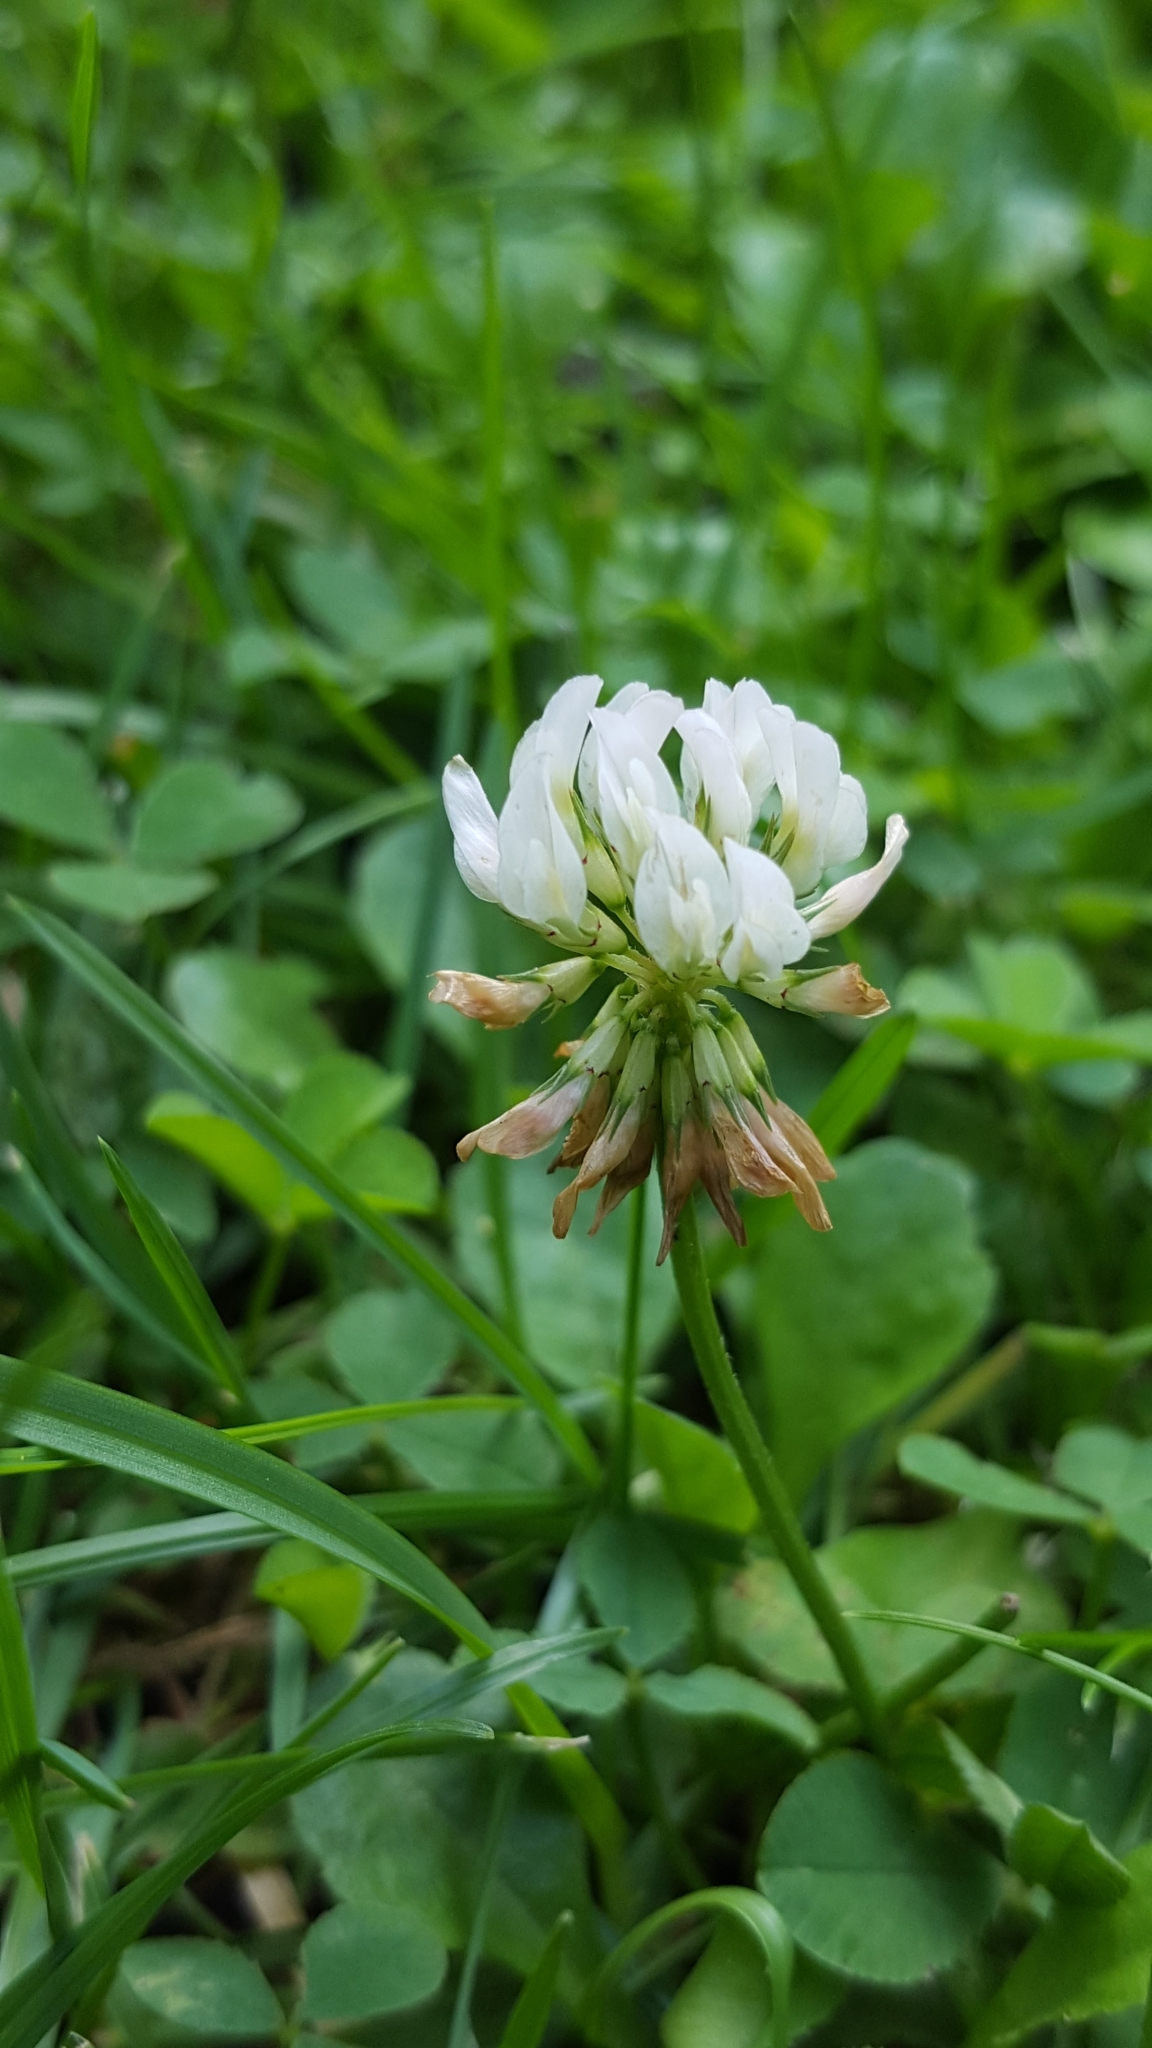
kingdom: Plantae
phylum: Tracheophyta
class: Magnoliopsida
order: Fabales
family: Fabaceae
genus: Trifolium
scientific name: Trifolium repens
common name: White clover
